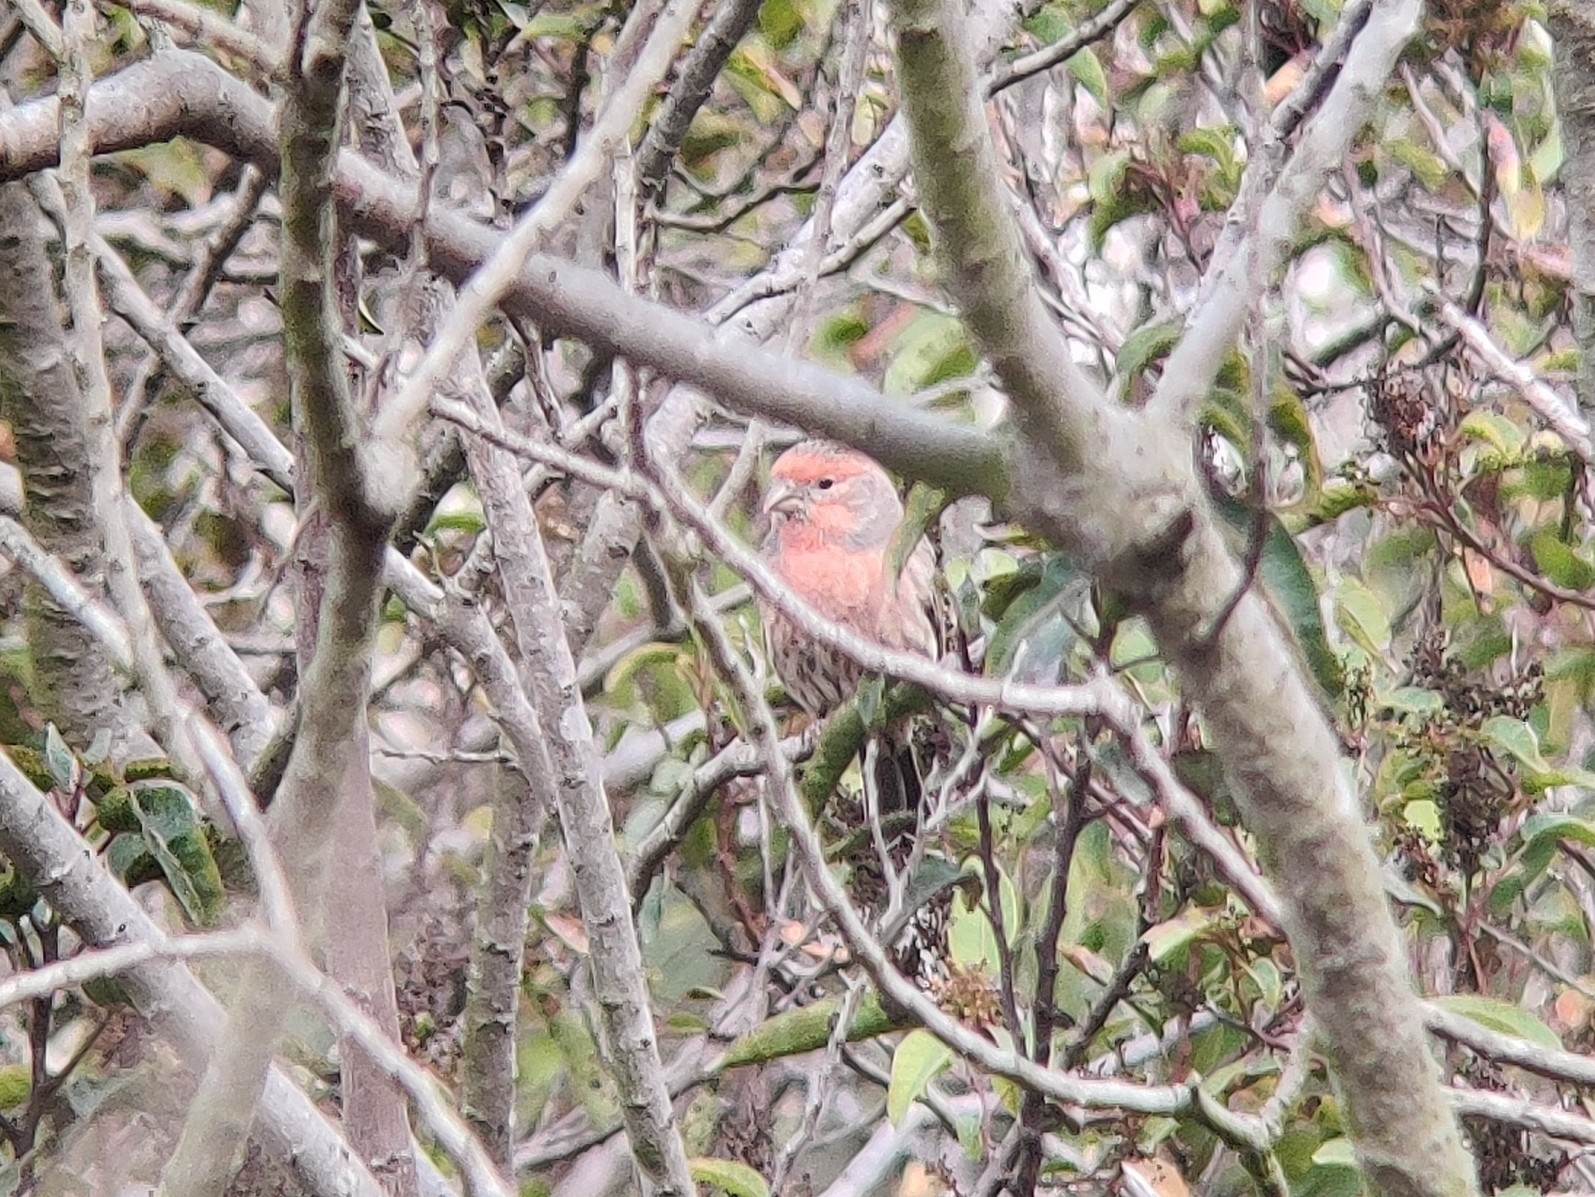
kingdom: Animalia
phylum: Chordata
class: Aves
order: Passeriformes
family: Fringillidae
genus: Haemorhous
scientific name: Haemorhous mexicanus
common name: House finch
